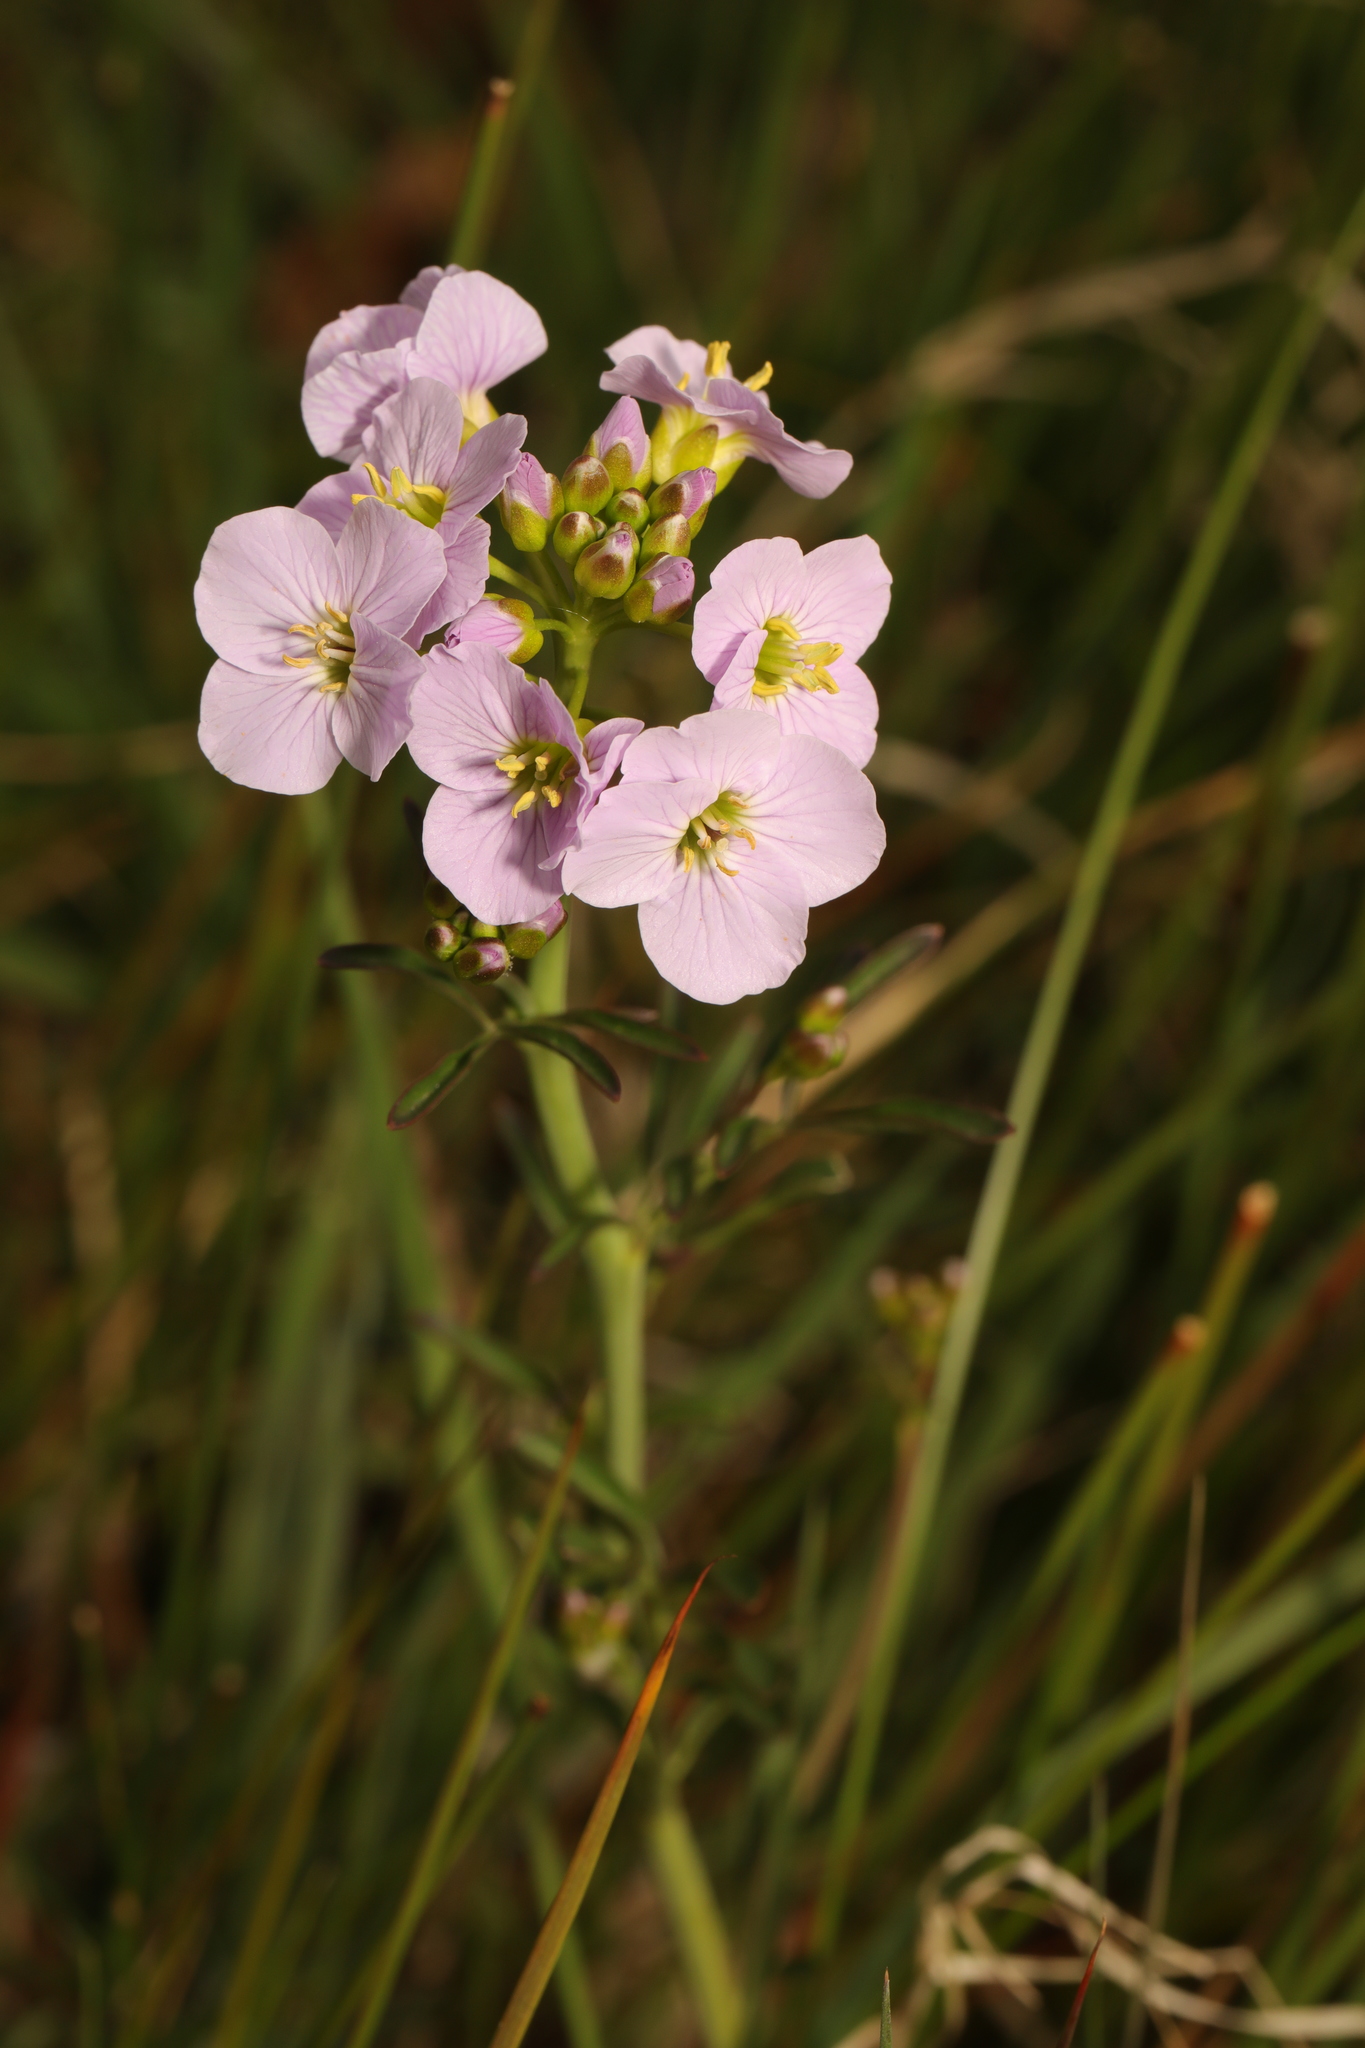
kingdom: Plantae
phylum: Tracheophyta
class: Magnoliopsida
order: Brassicales
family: Brassicaceae
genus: Cardamine
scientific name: Cardamine pratensis
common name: Cuckoo flower
